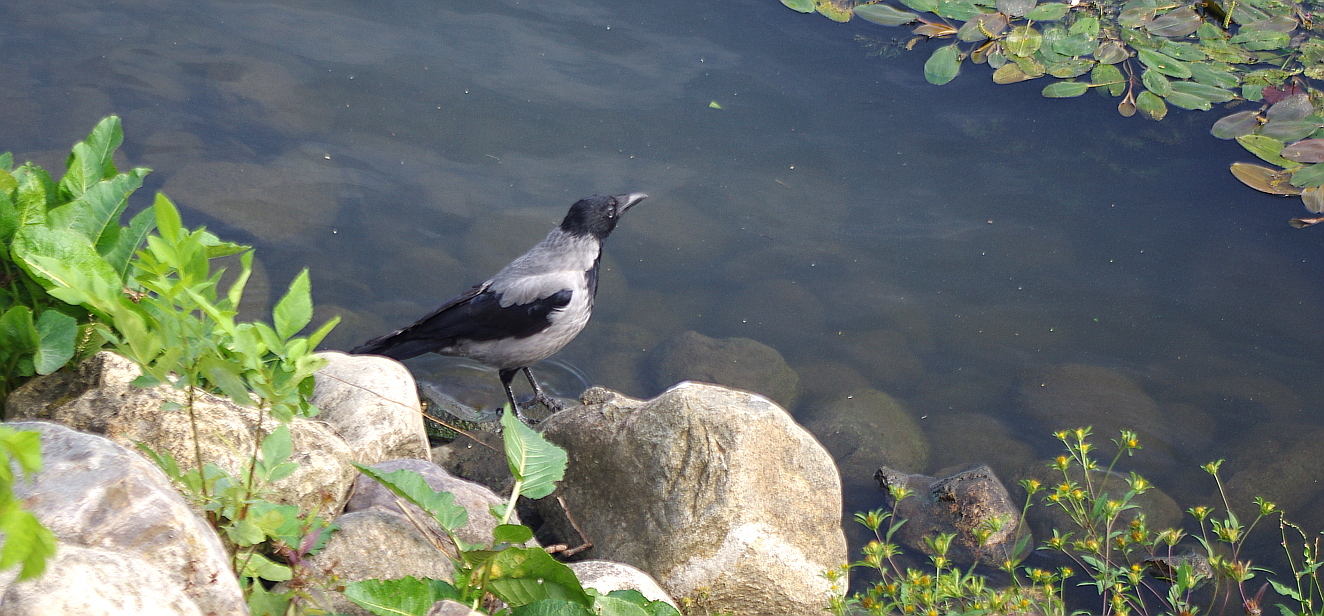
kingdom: Animalia
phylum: Chordata
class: Aves
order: Passeriformes
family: Corvidae
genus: Corvus
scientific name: Corvus cornix
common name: Hooded crow
